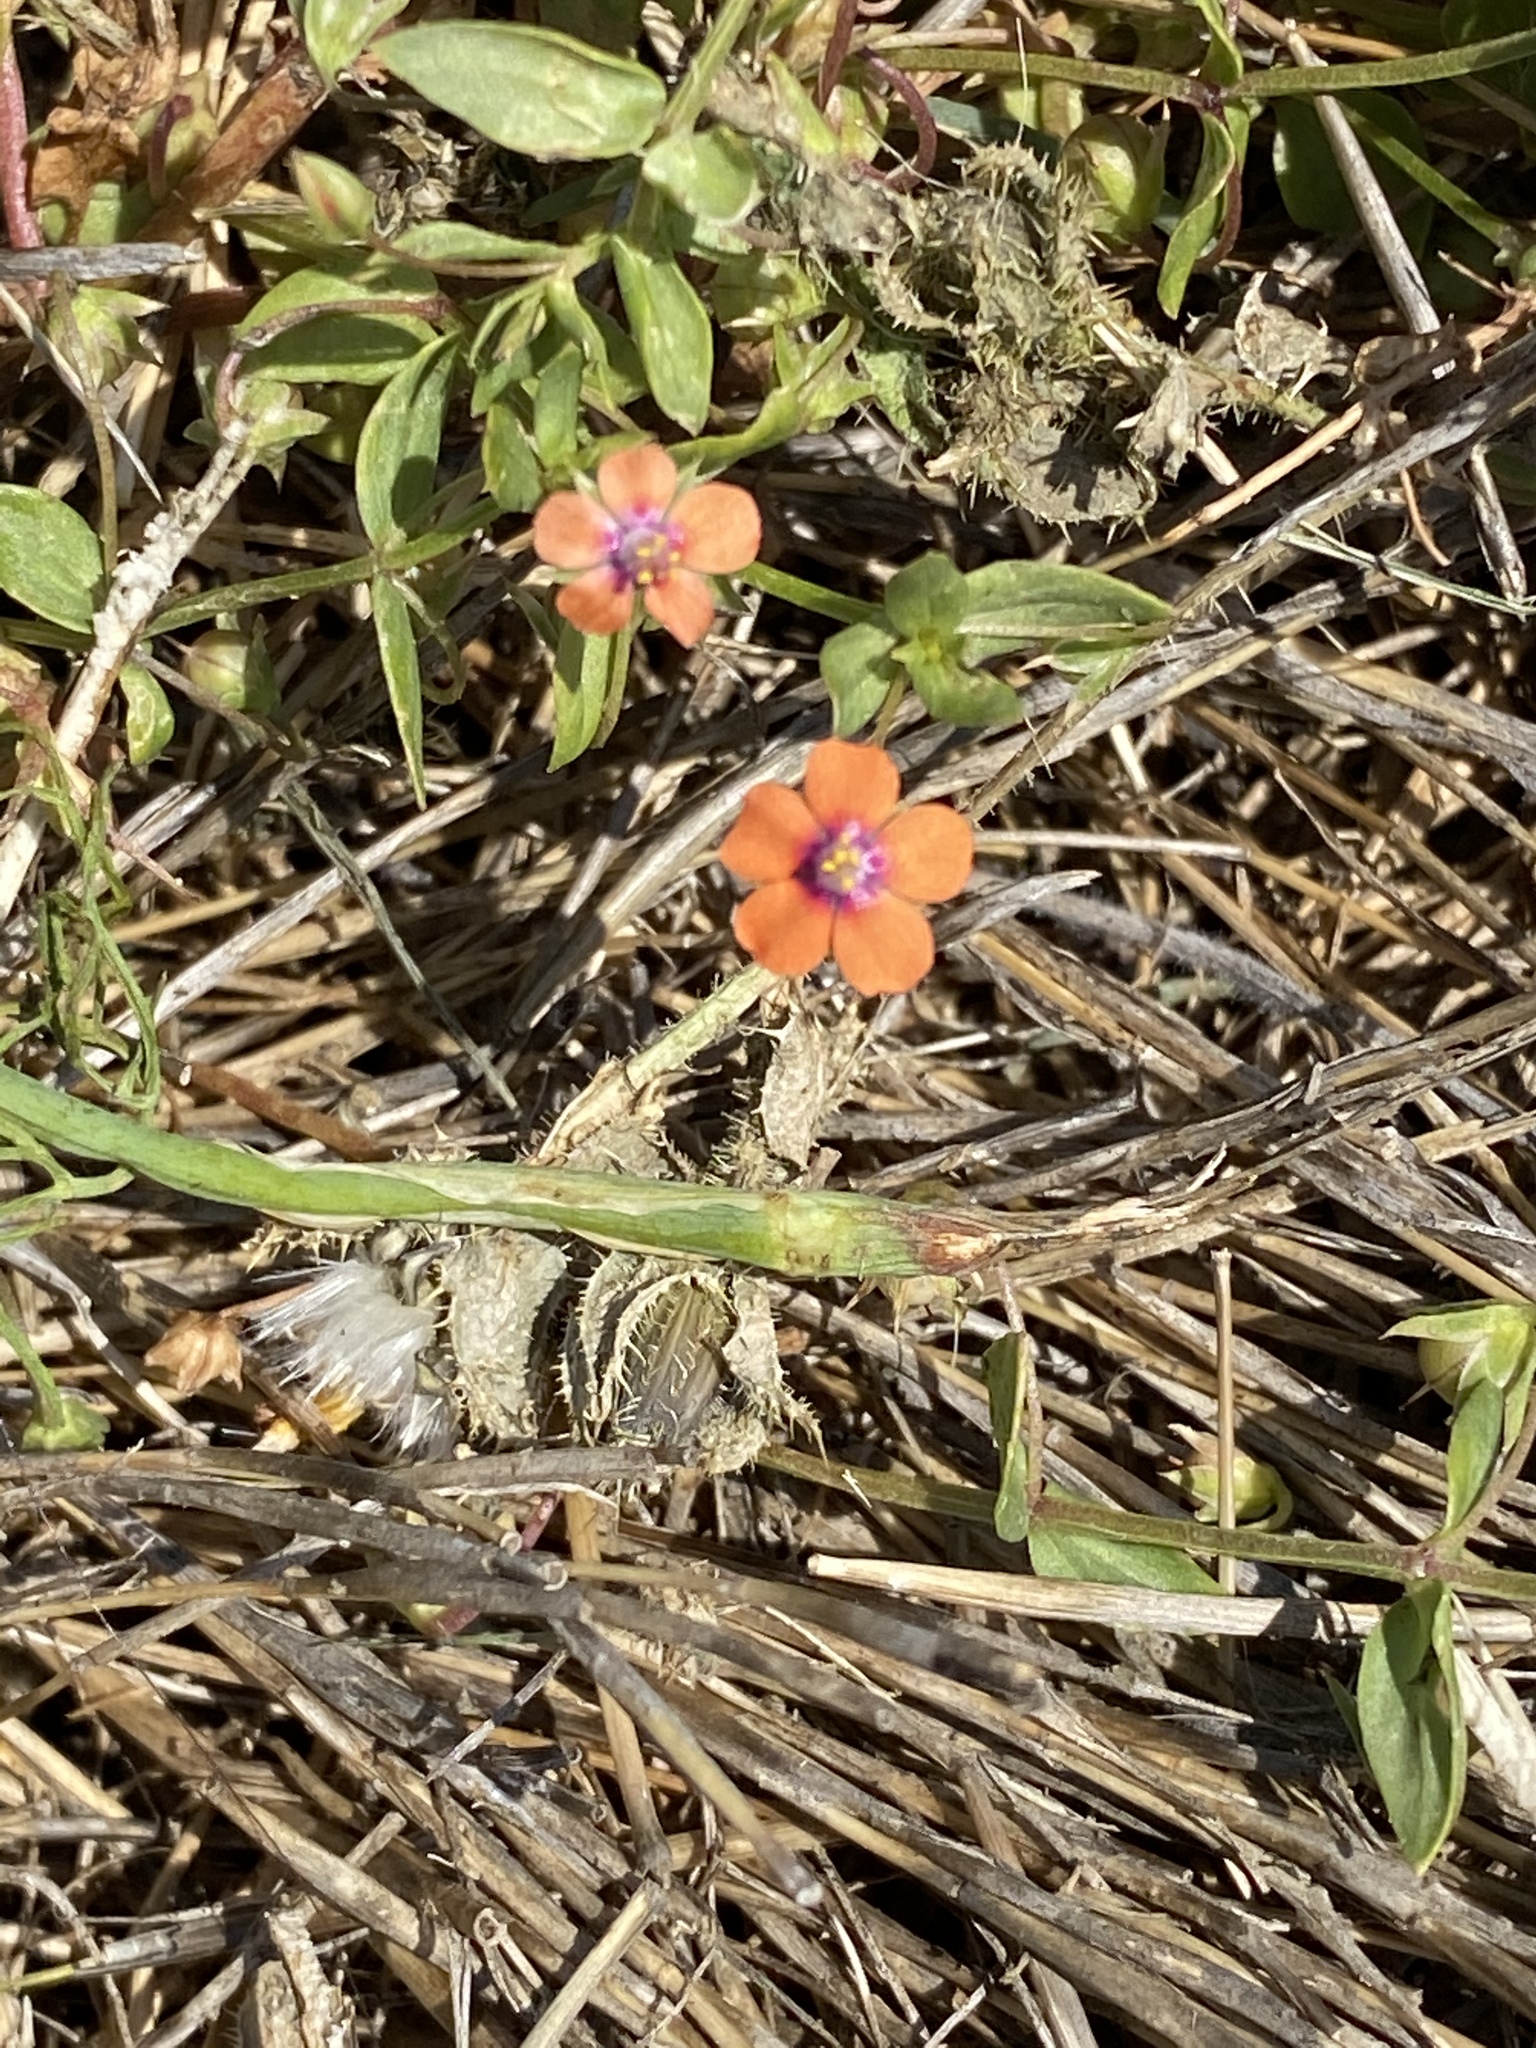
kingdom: Plantae
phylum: Tracheophyta
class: Magnoliopsida
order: Ericales
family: Primulaceae
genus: Lysimachia
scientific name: Lysimachia arvensis
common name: Scarlet pimpernel
